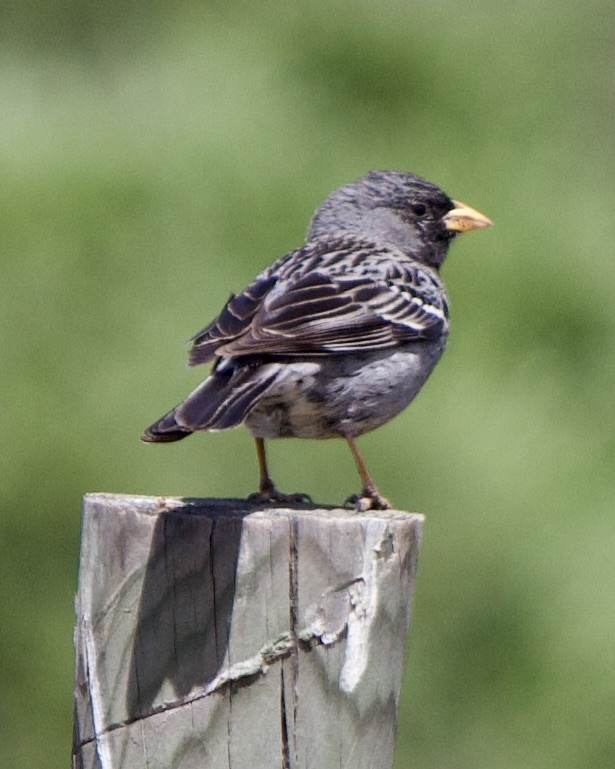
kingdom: Animalia
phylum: Chordata
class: Aves
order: Passeriformes
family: Thraupidae
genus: Rhopospina
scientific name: Rhopospina fruticeti
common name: Mourning sierra finch
